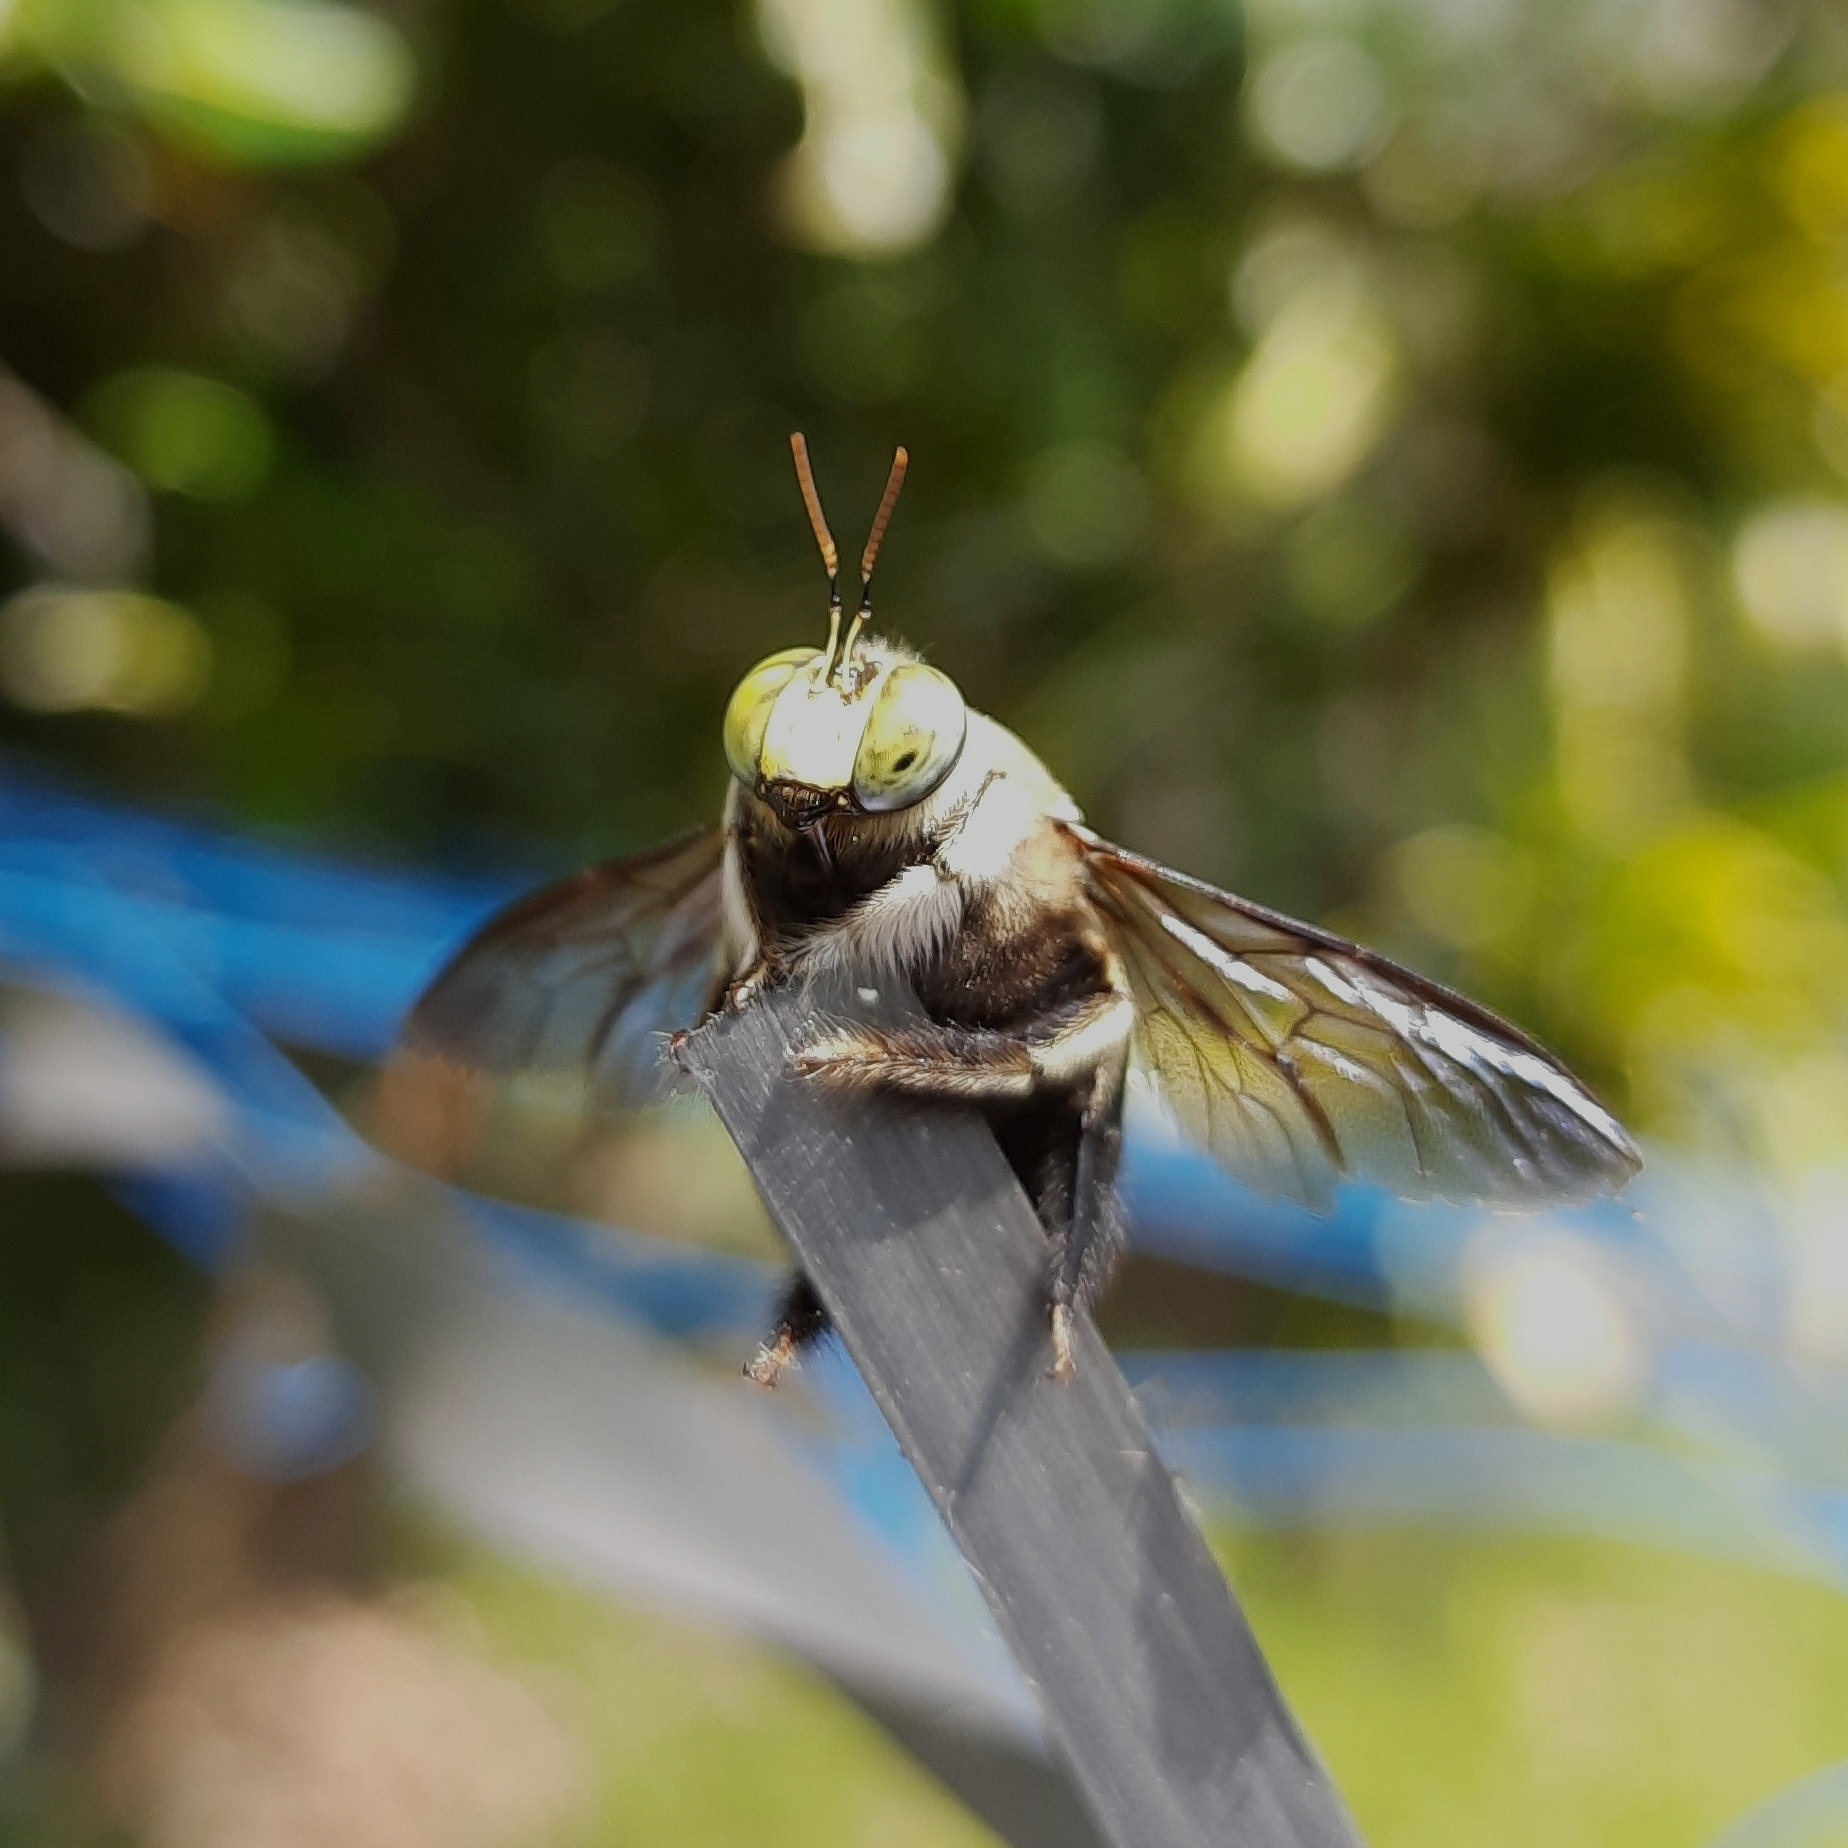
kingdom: Animalia
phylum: Arthropoda
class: Insecta
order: Hymenoptera
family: Apidae
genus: Xylocopa
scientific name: Xylocopa bhowara
